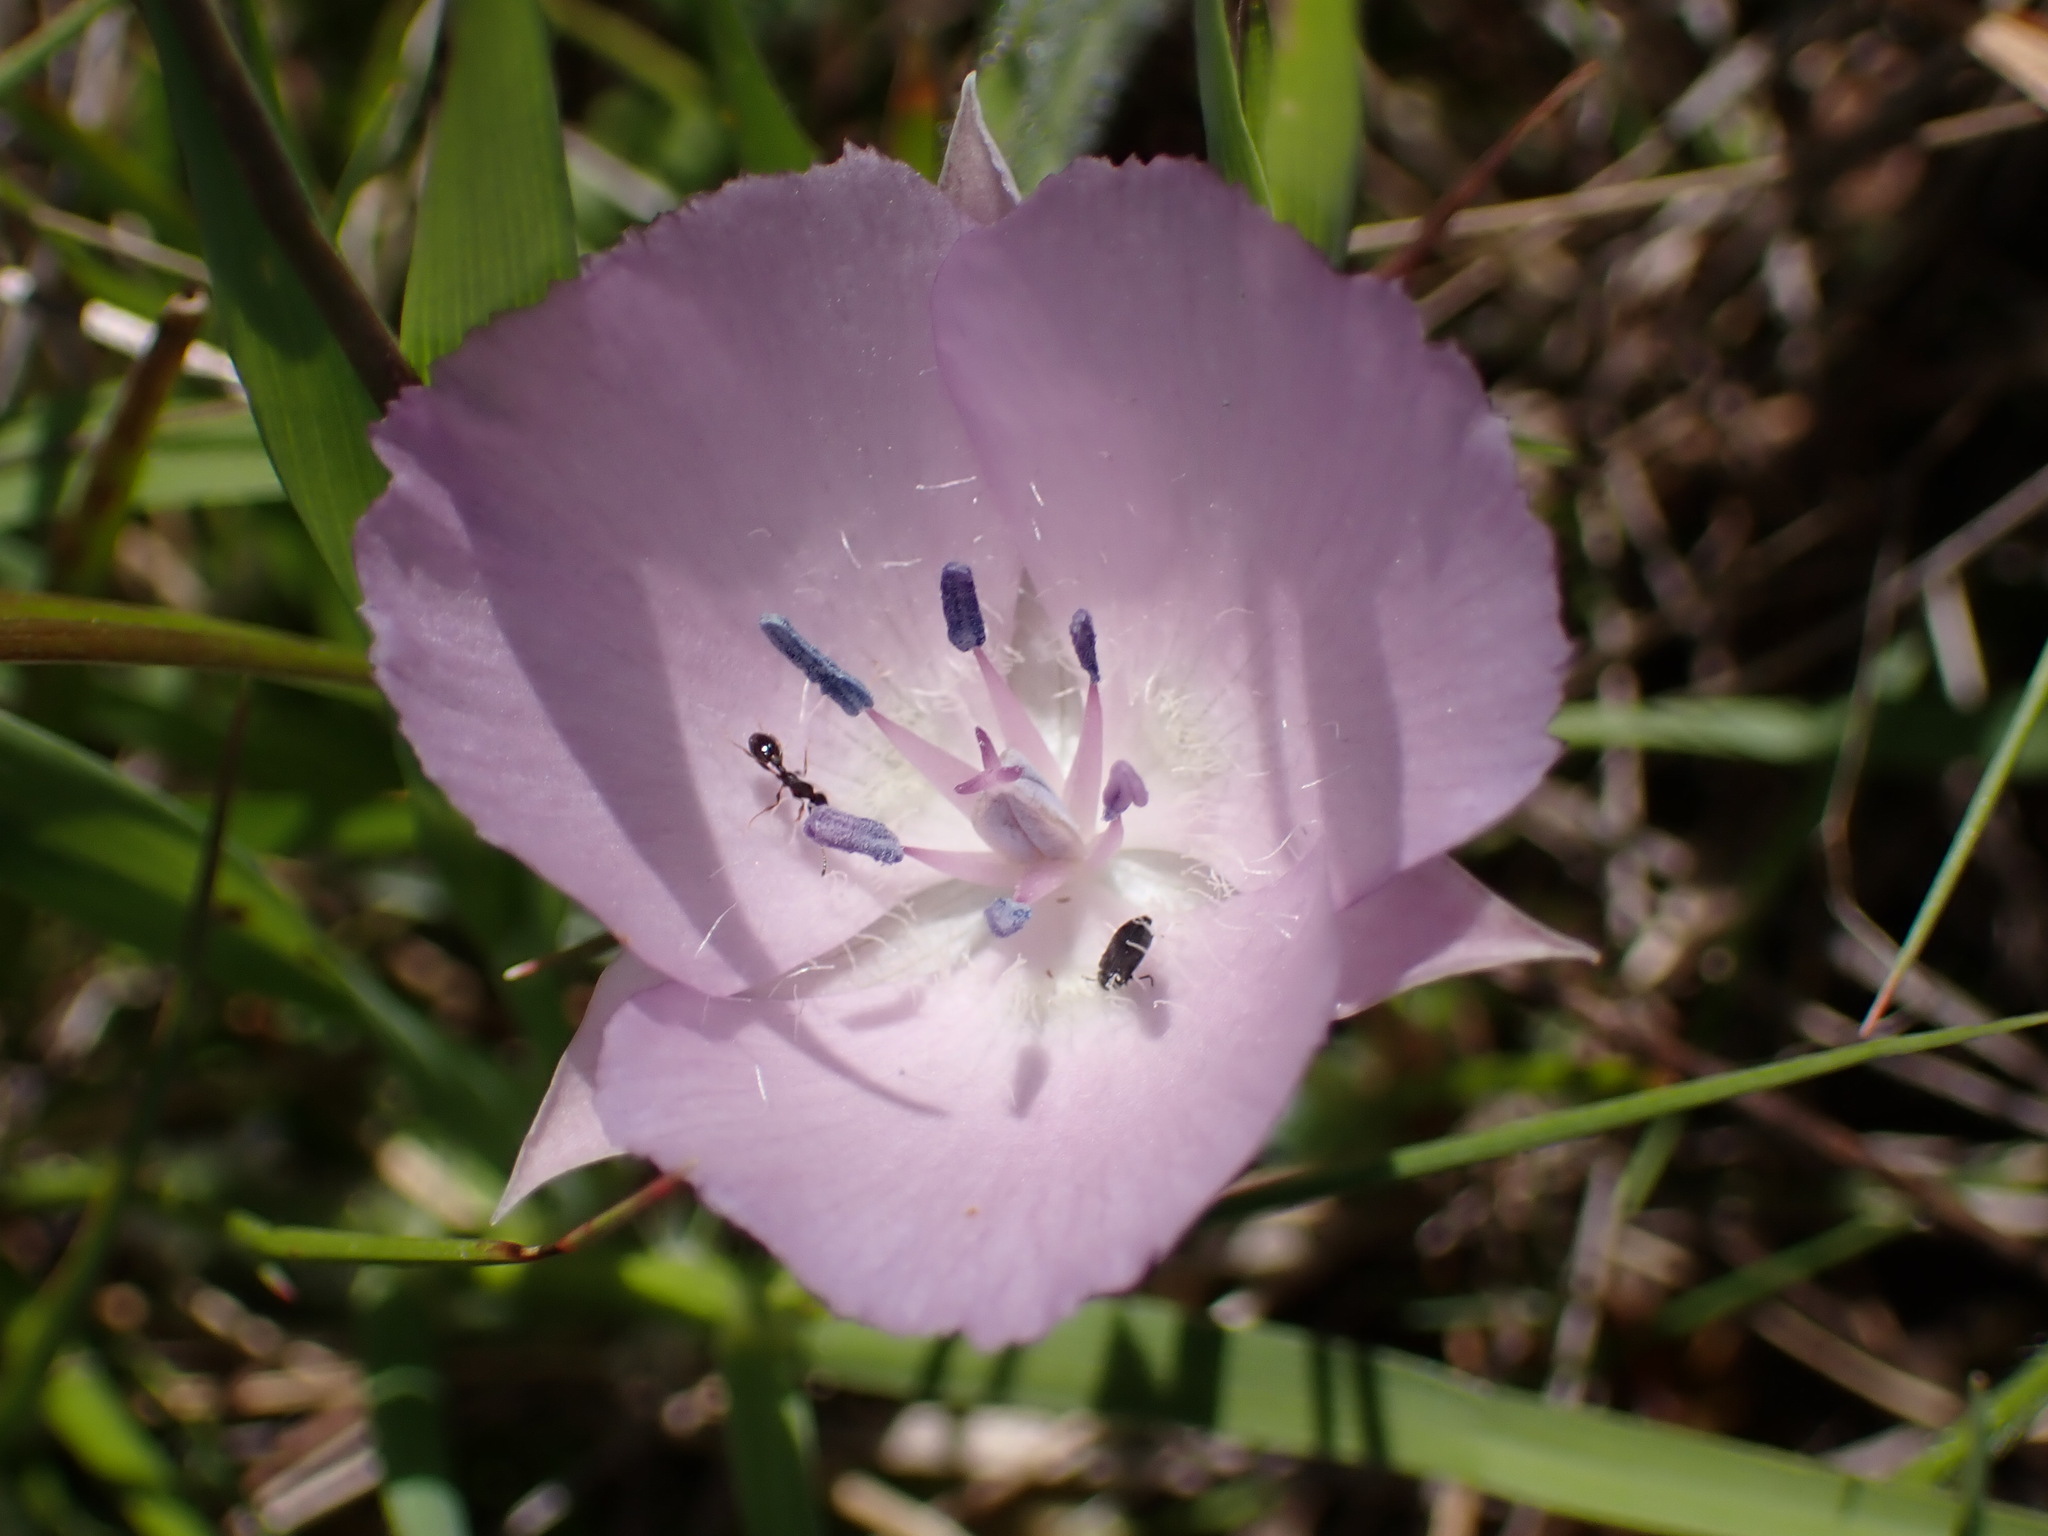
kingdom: Plantae
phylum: Tracheophyta
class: Liliopsida
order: Liliales
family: Liliaceae
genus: Calochortus
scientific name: Calochortus uniflorus
